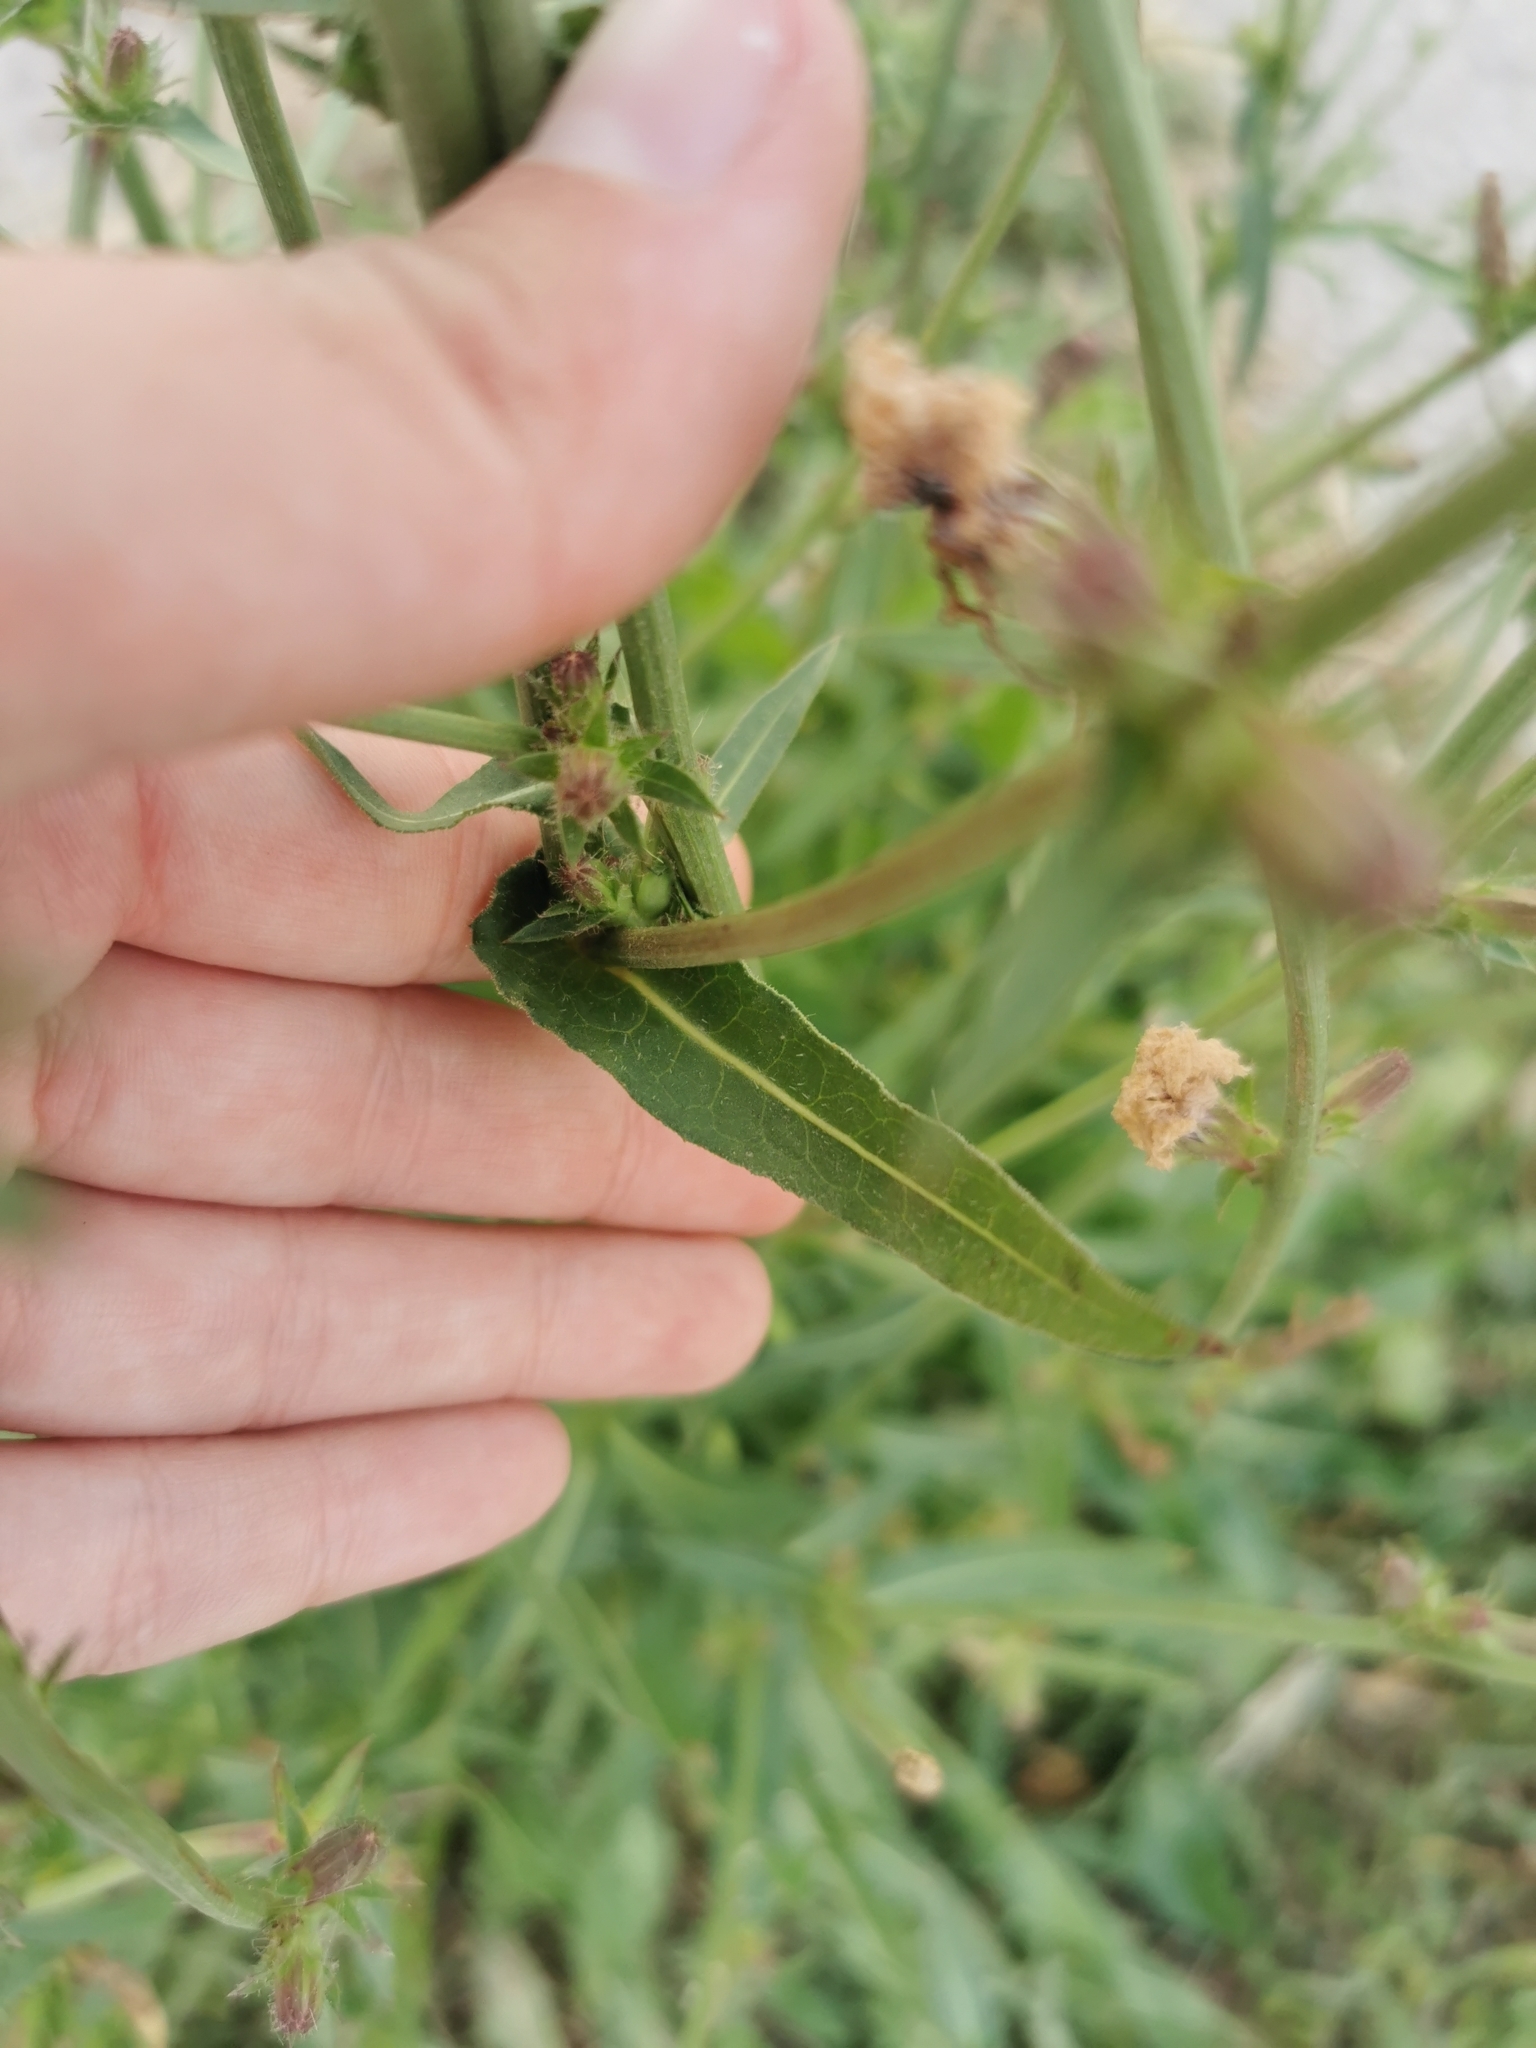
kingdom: Plantae
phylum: Tracheophyta
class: Magnoliopsida
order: Asterales
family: Asteraceae
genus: Cichorium
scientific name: Cichorium intybus
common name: Chicory
